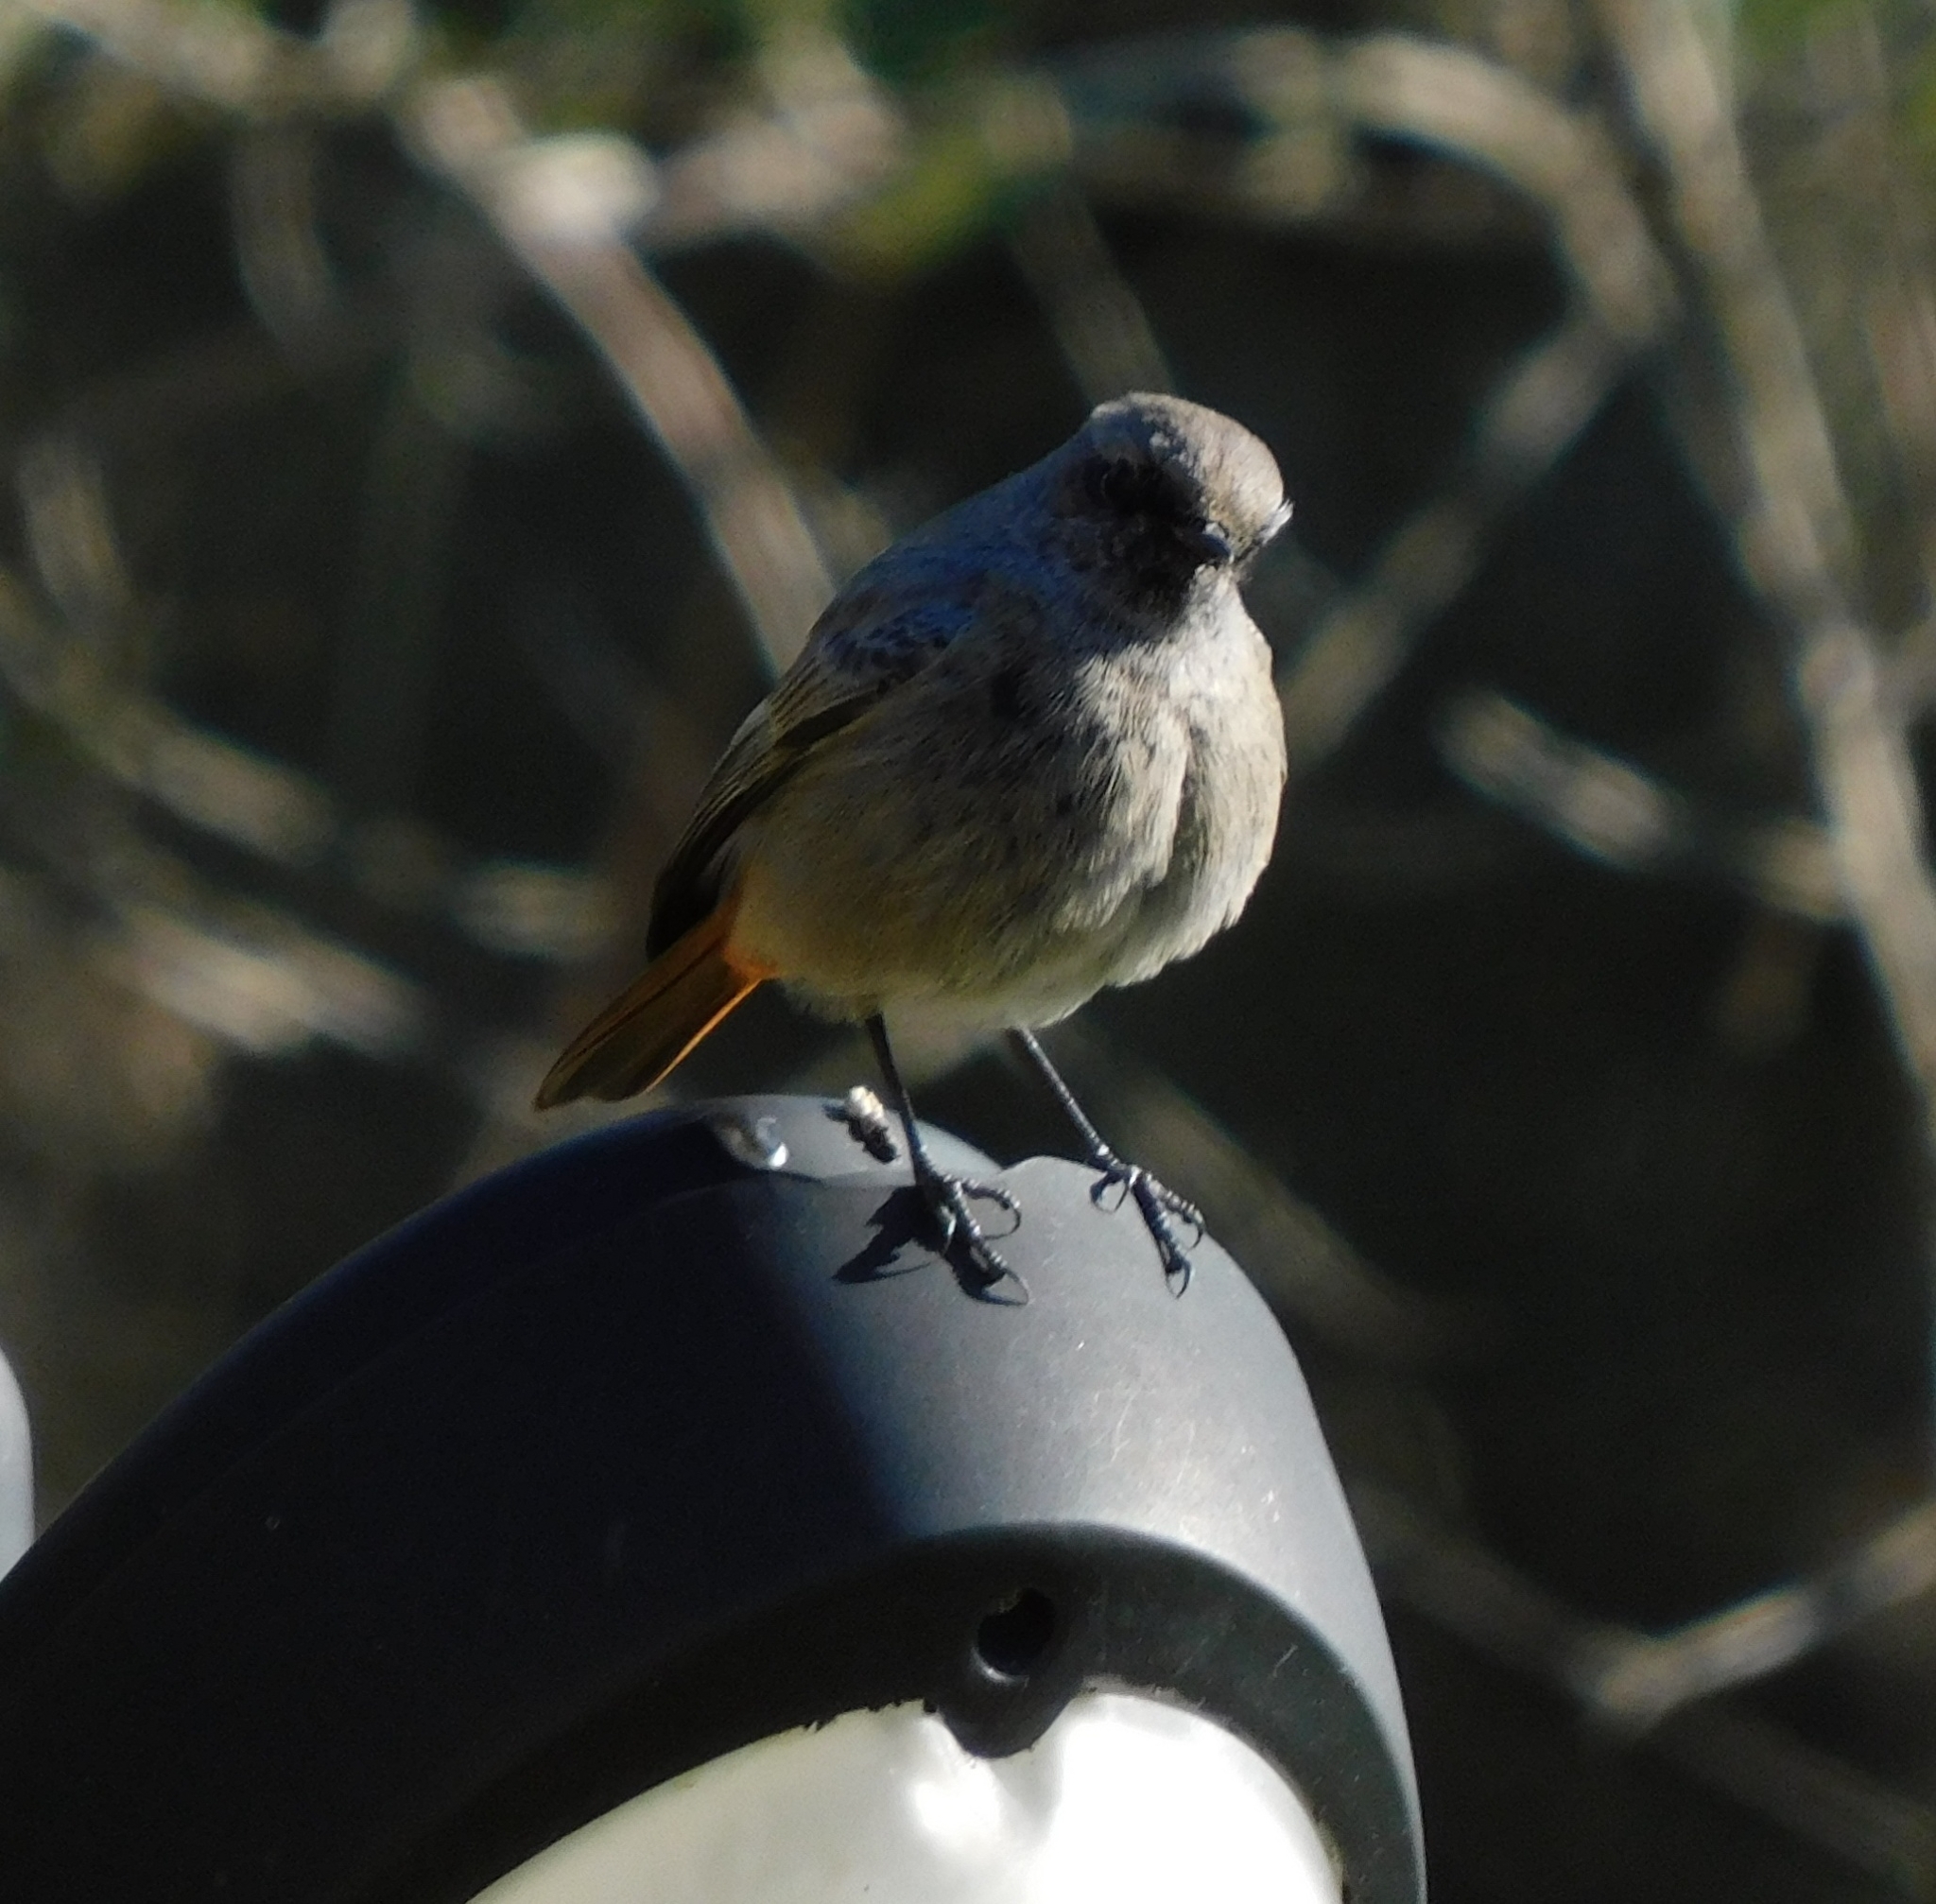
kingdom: Animalia
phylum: Chordata
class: Aves
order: Passeriformes
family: Muscicapidae
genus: Phoenicurus
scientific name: Phoenicurus ochruros
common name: Black redstart
